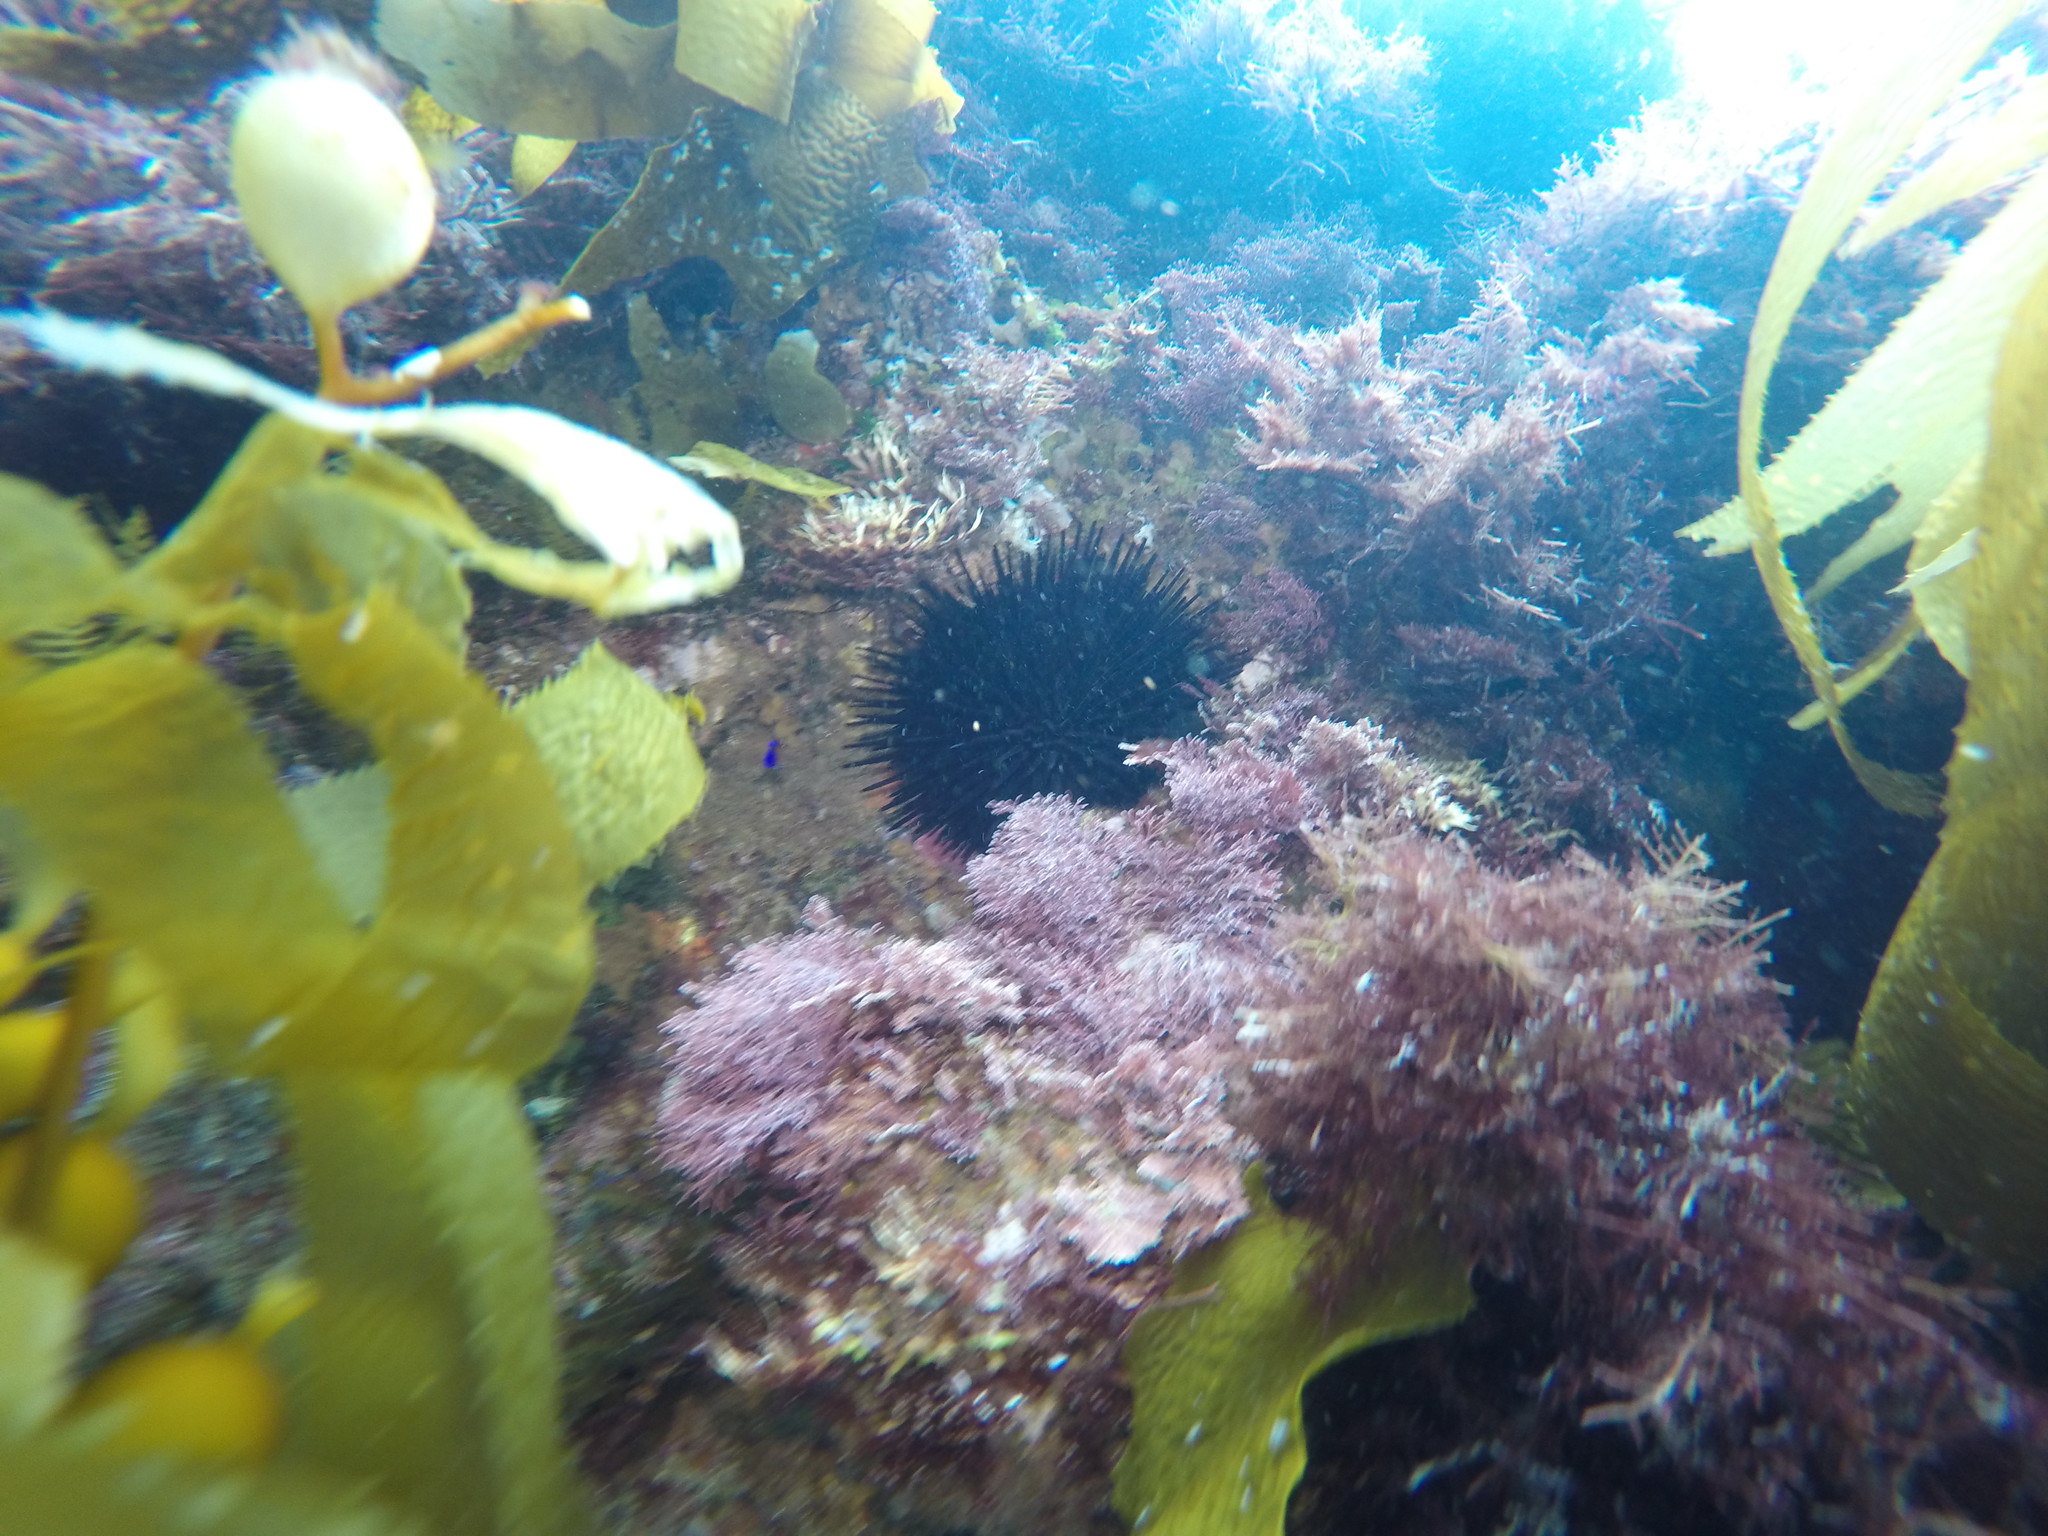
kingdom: Animalia
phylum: Echinodermata
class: Echinoidea
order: Camarodonta
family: Strongylocentrotidae
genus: Mesocentrotus
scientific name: Mesocentrotus franciscanus
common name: Red sea urchin
